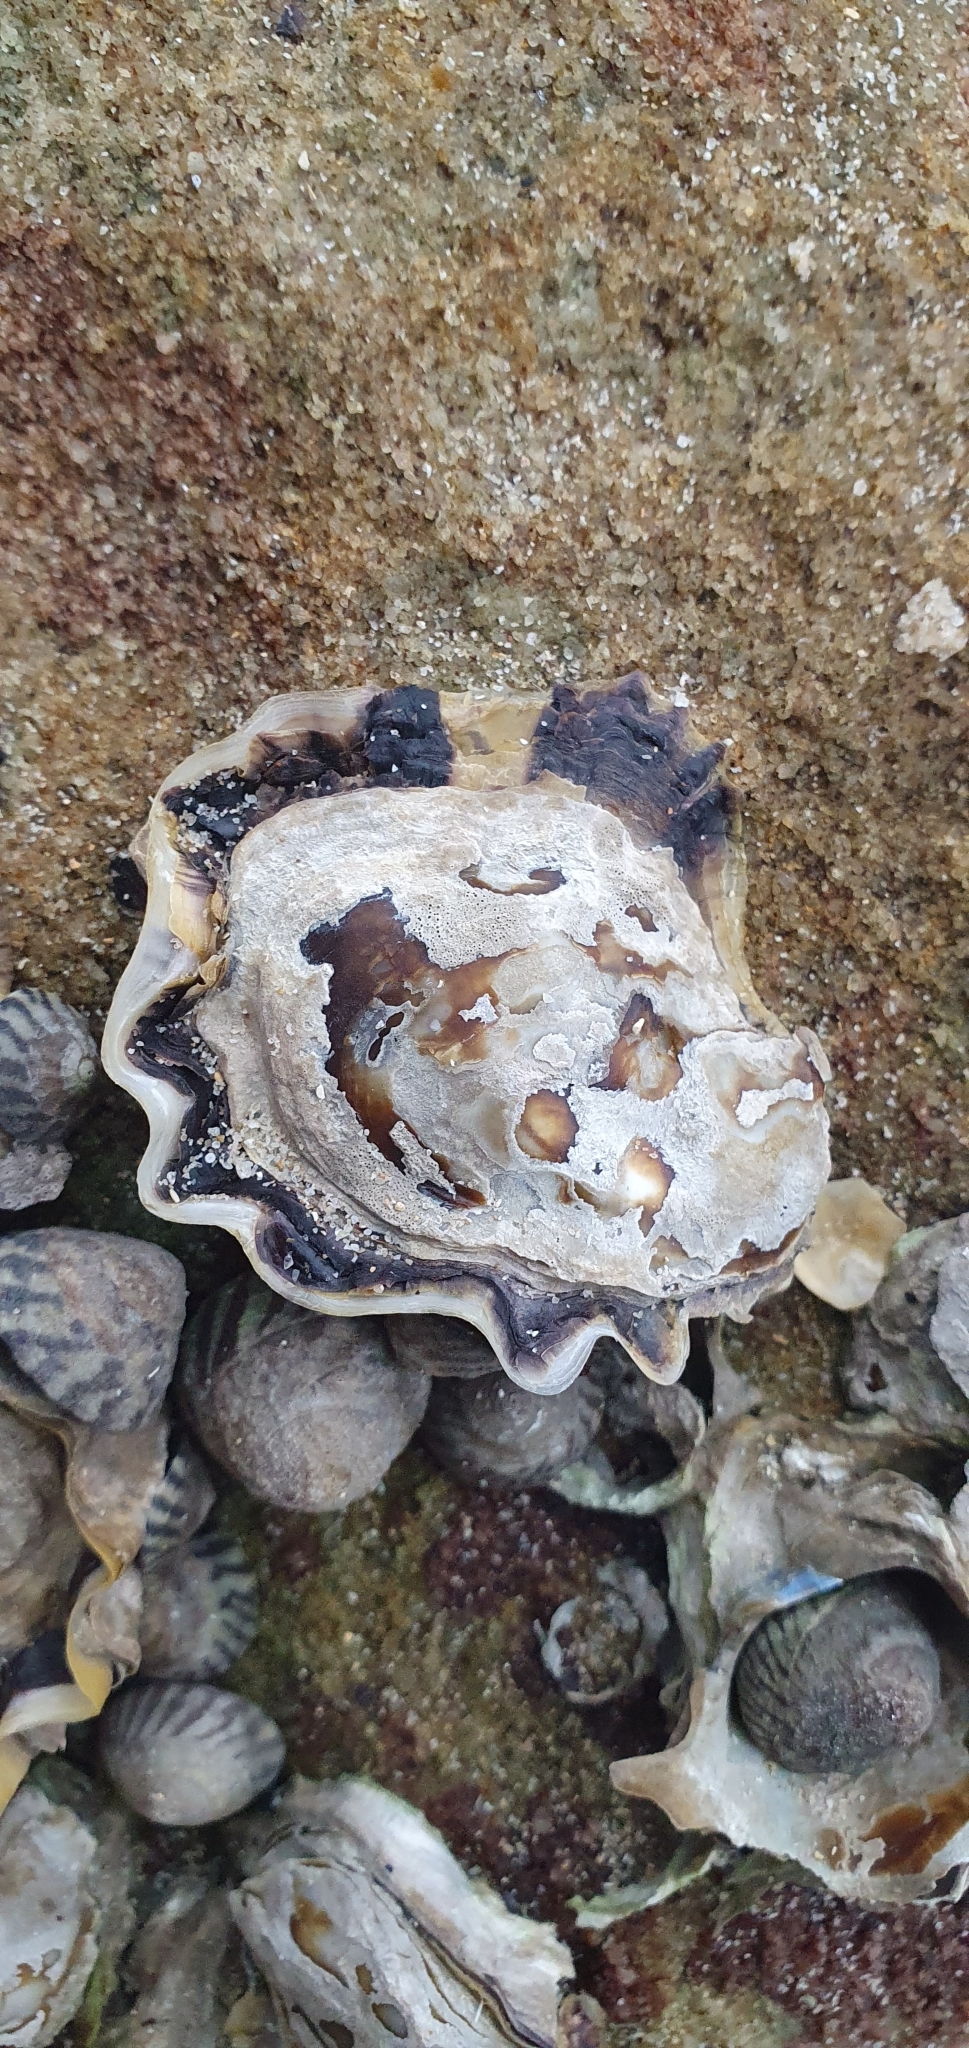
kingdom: Animalia
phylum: Mollusca
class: Bivalvia
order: Ostreida
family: Ostreidae
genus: Saccostrea
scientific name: Saccostrea glomerata
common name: Sydney cupped oyster
